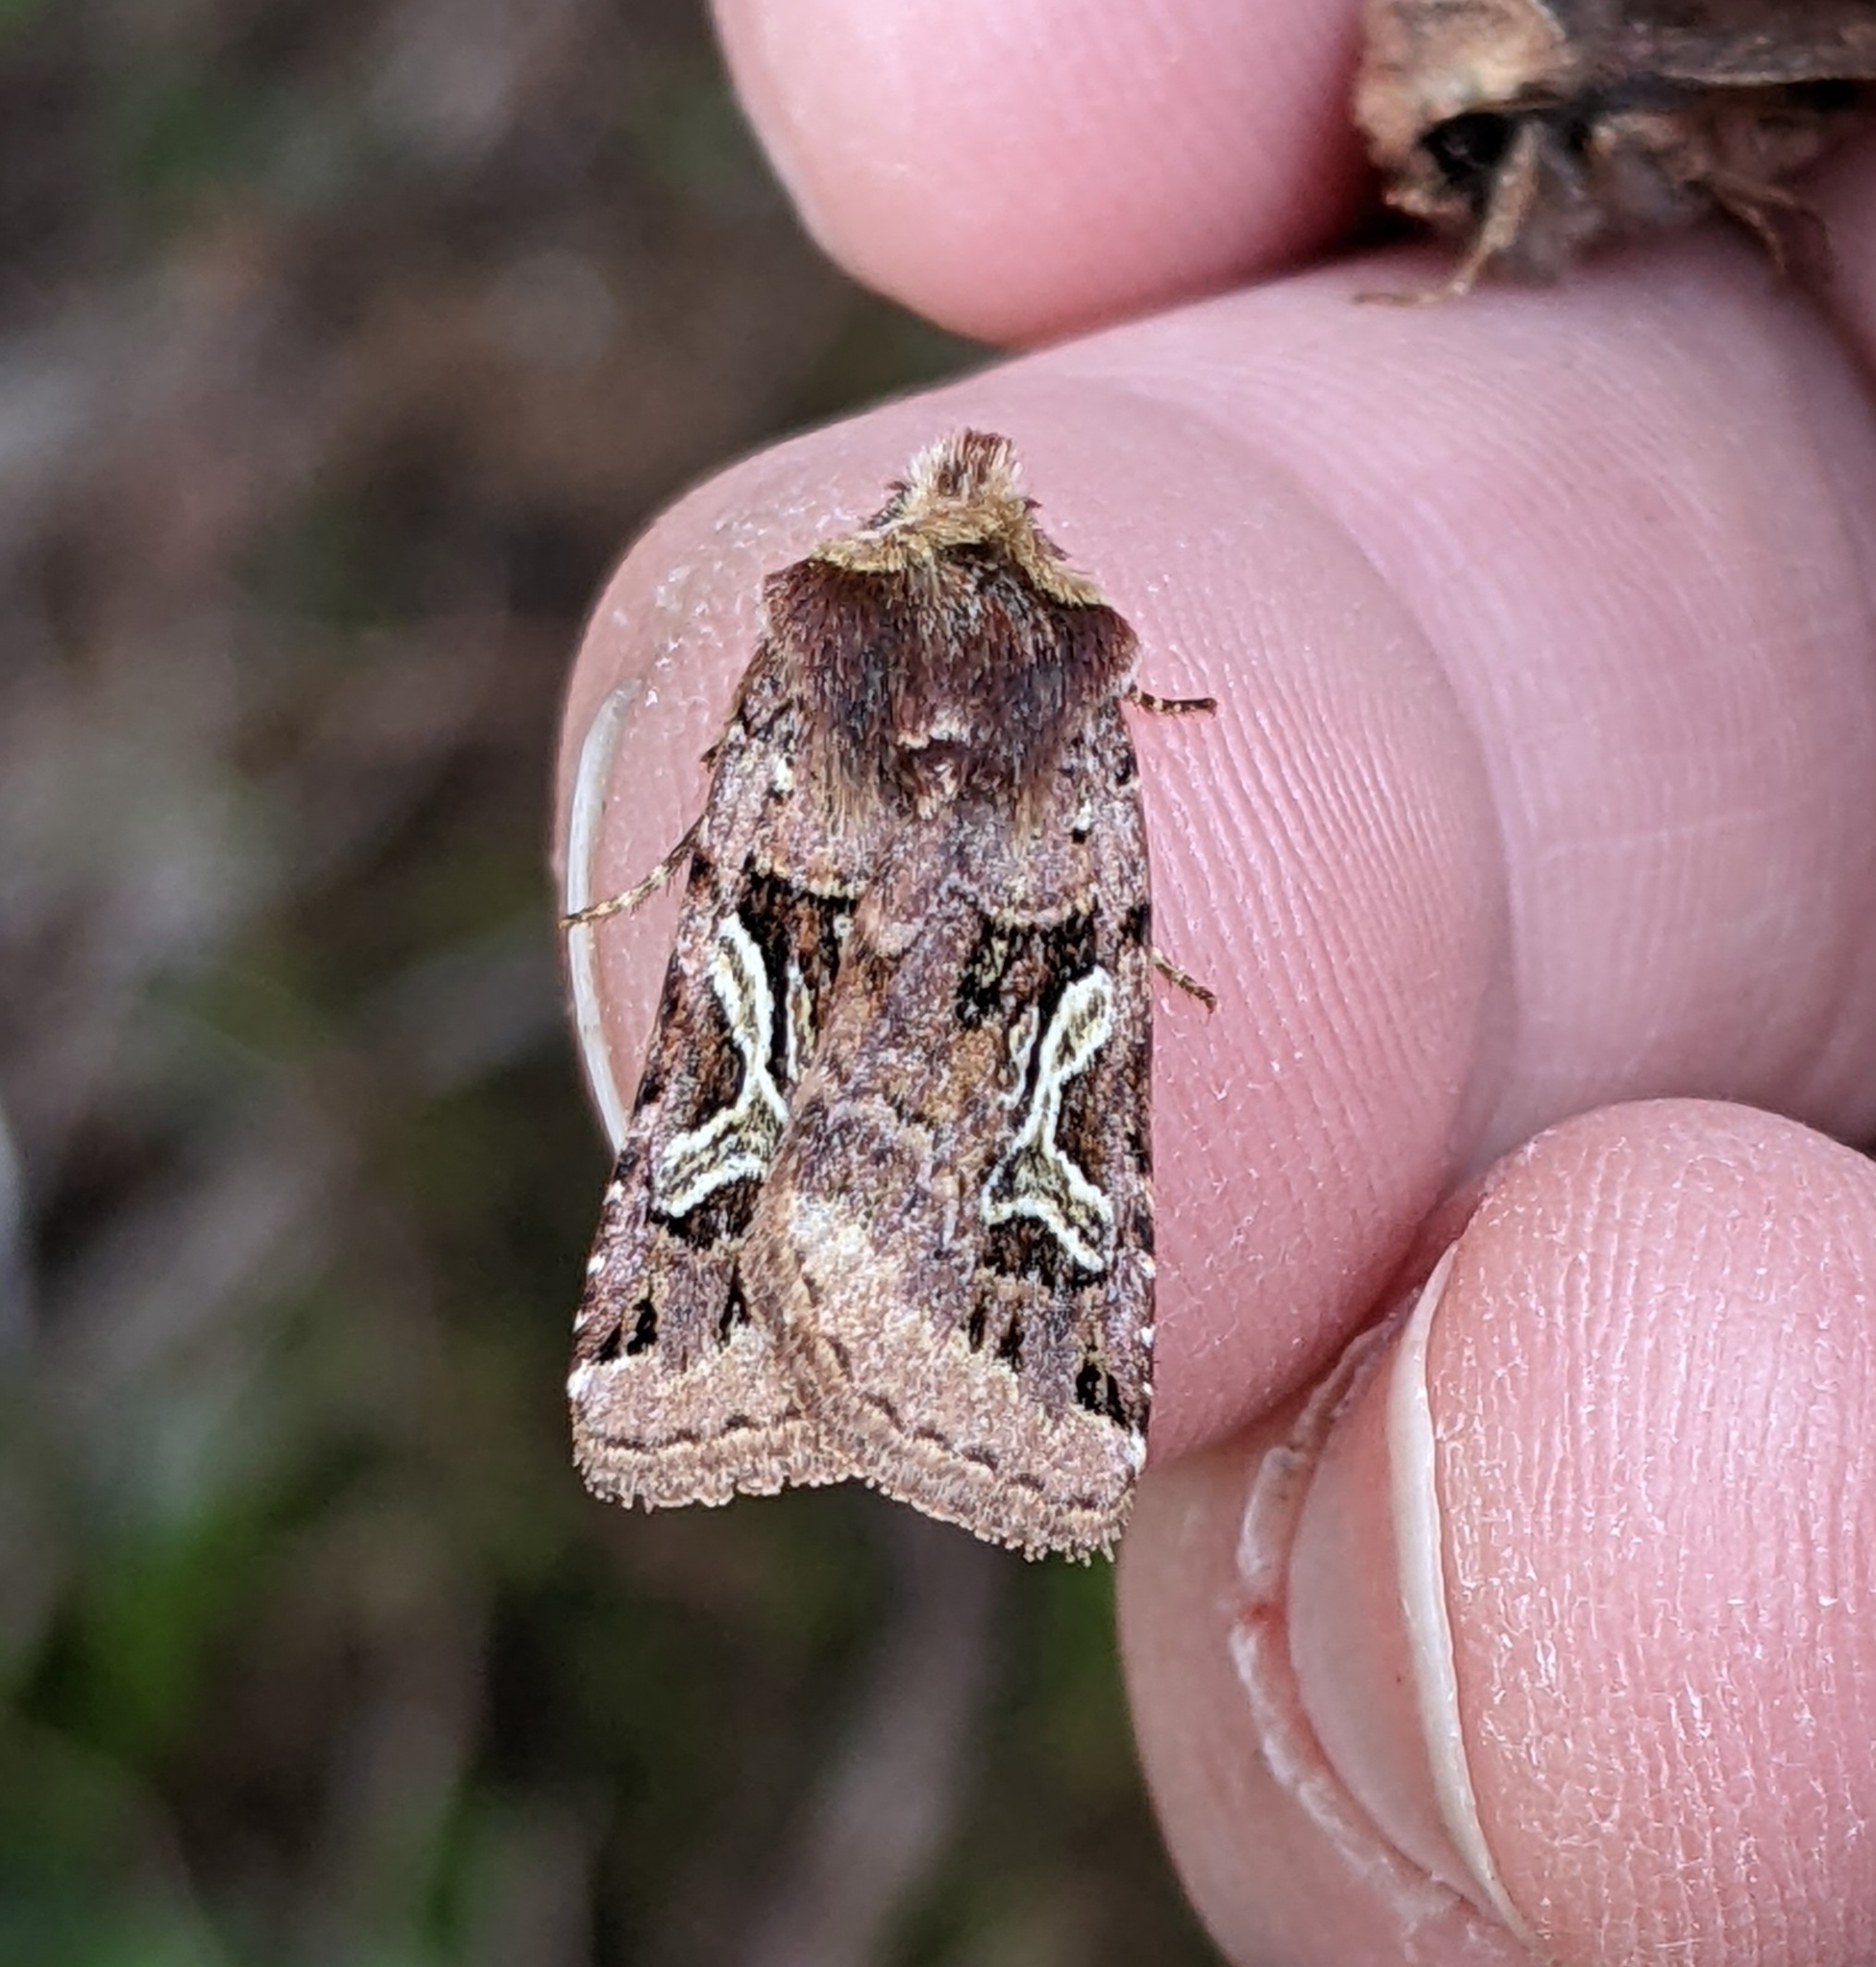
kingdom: Animalia
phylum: Arthropoda
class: Insecta
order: Lepidoptera
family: Noctuidae
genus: Cerastis
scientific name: Cerastis enigmatica
